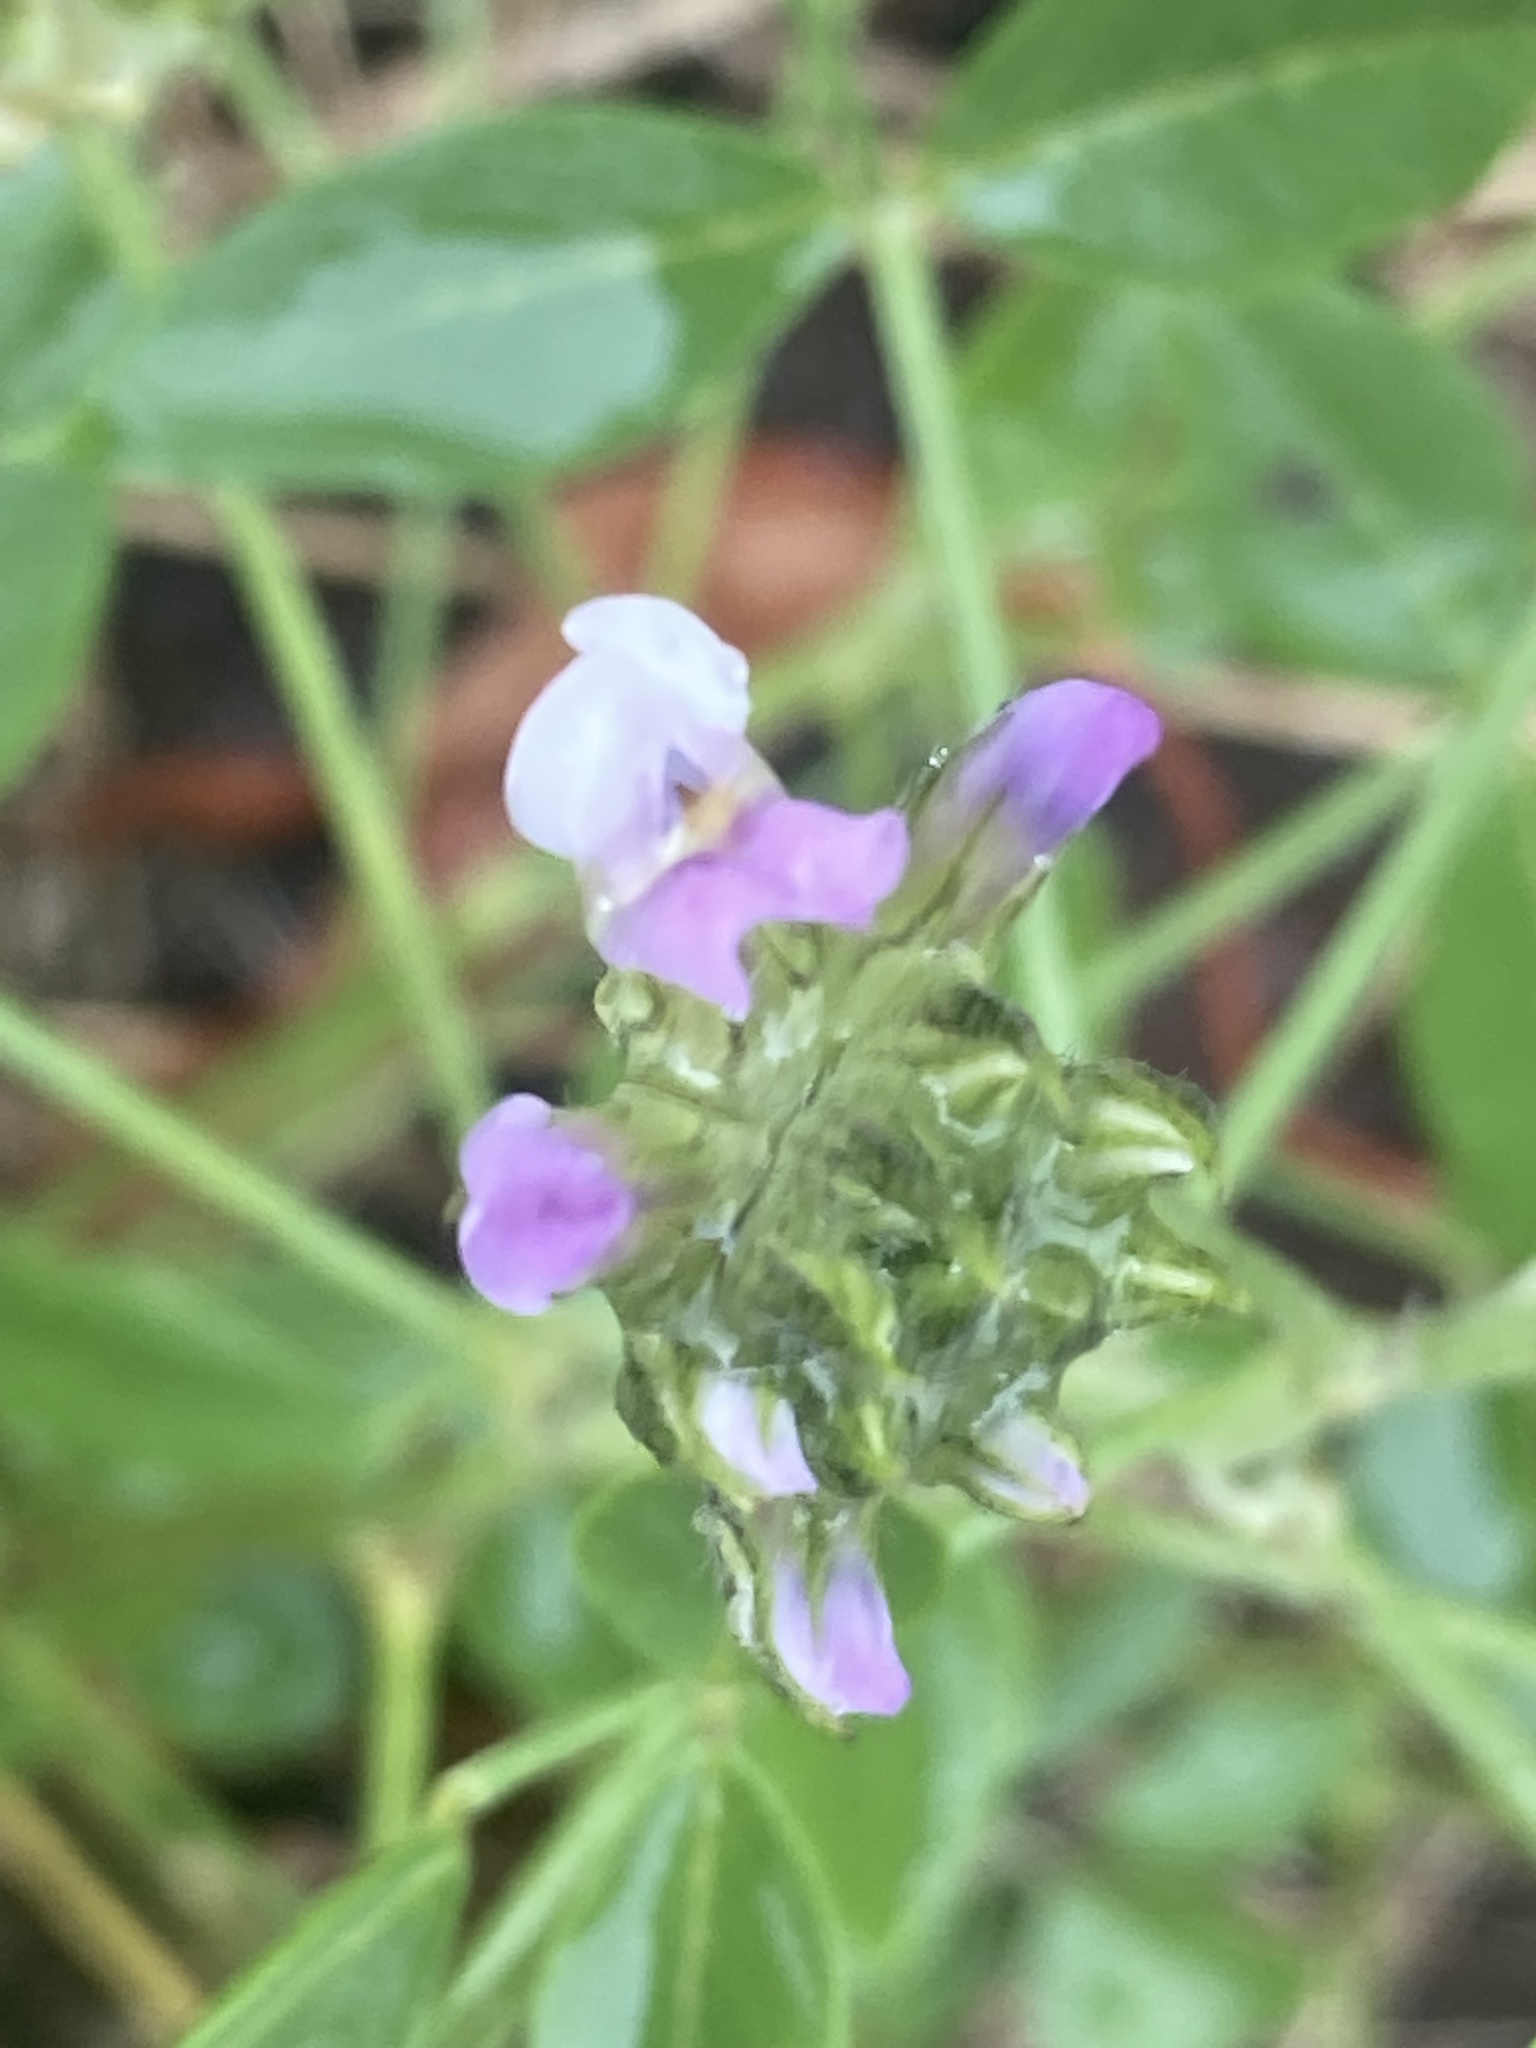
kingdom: Plantae
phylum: Tracheophyta
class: Magnoliopsida
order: Fabales
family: Fabaceae
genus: Bituminaria
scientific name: Bituminaria bituminosa
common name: Arabian pea
